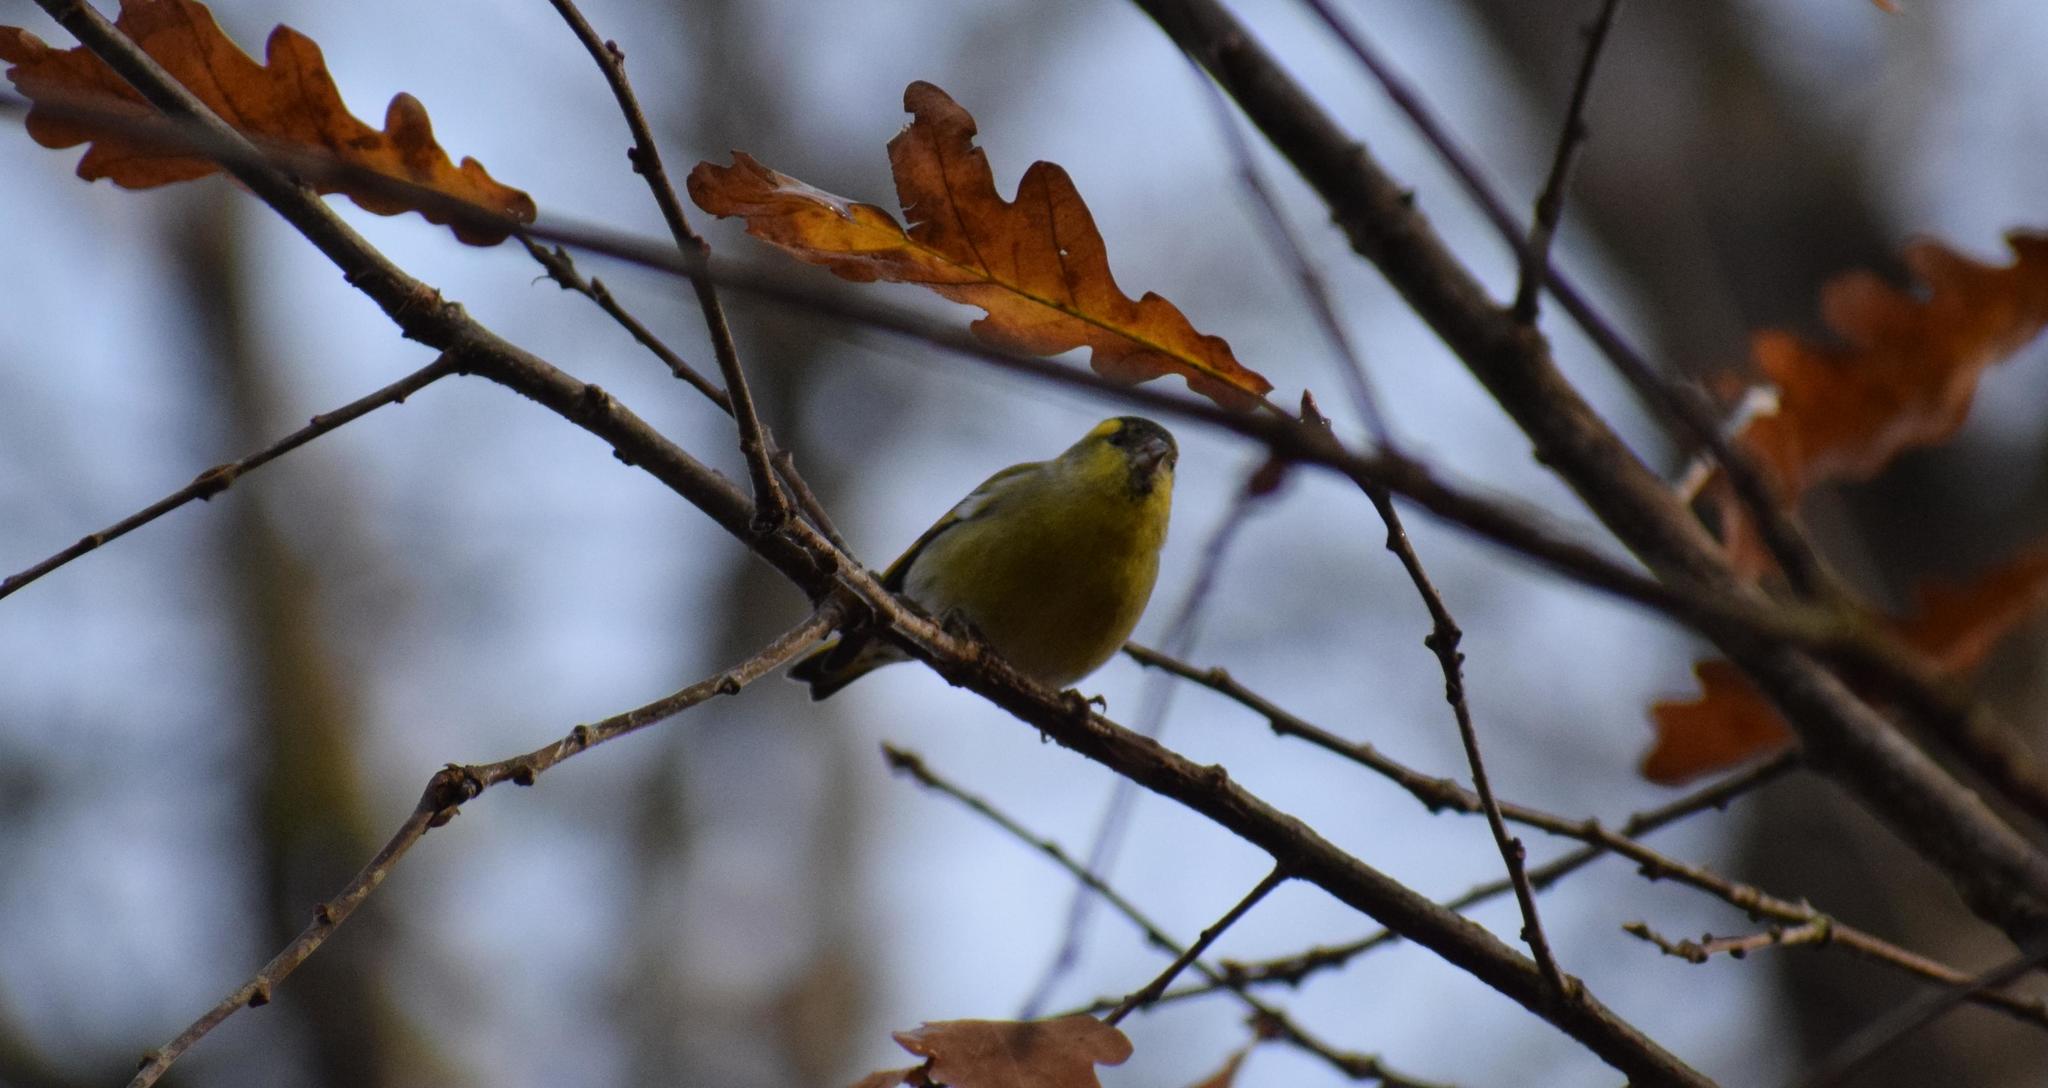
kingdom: Animalia
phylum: Chordata
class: Aves
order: Passeriformes
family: Fringillidae
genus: Spinus
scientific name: Spinus spinus
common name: Eurasian siskin
